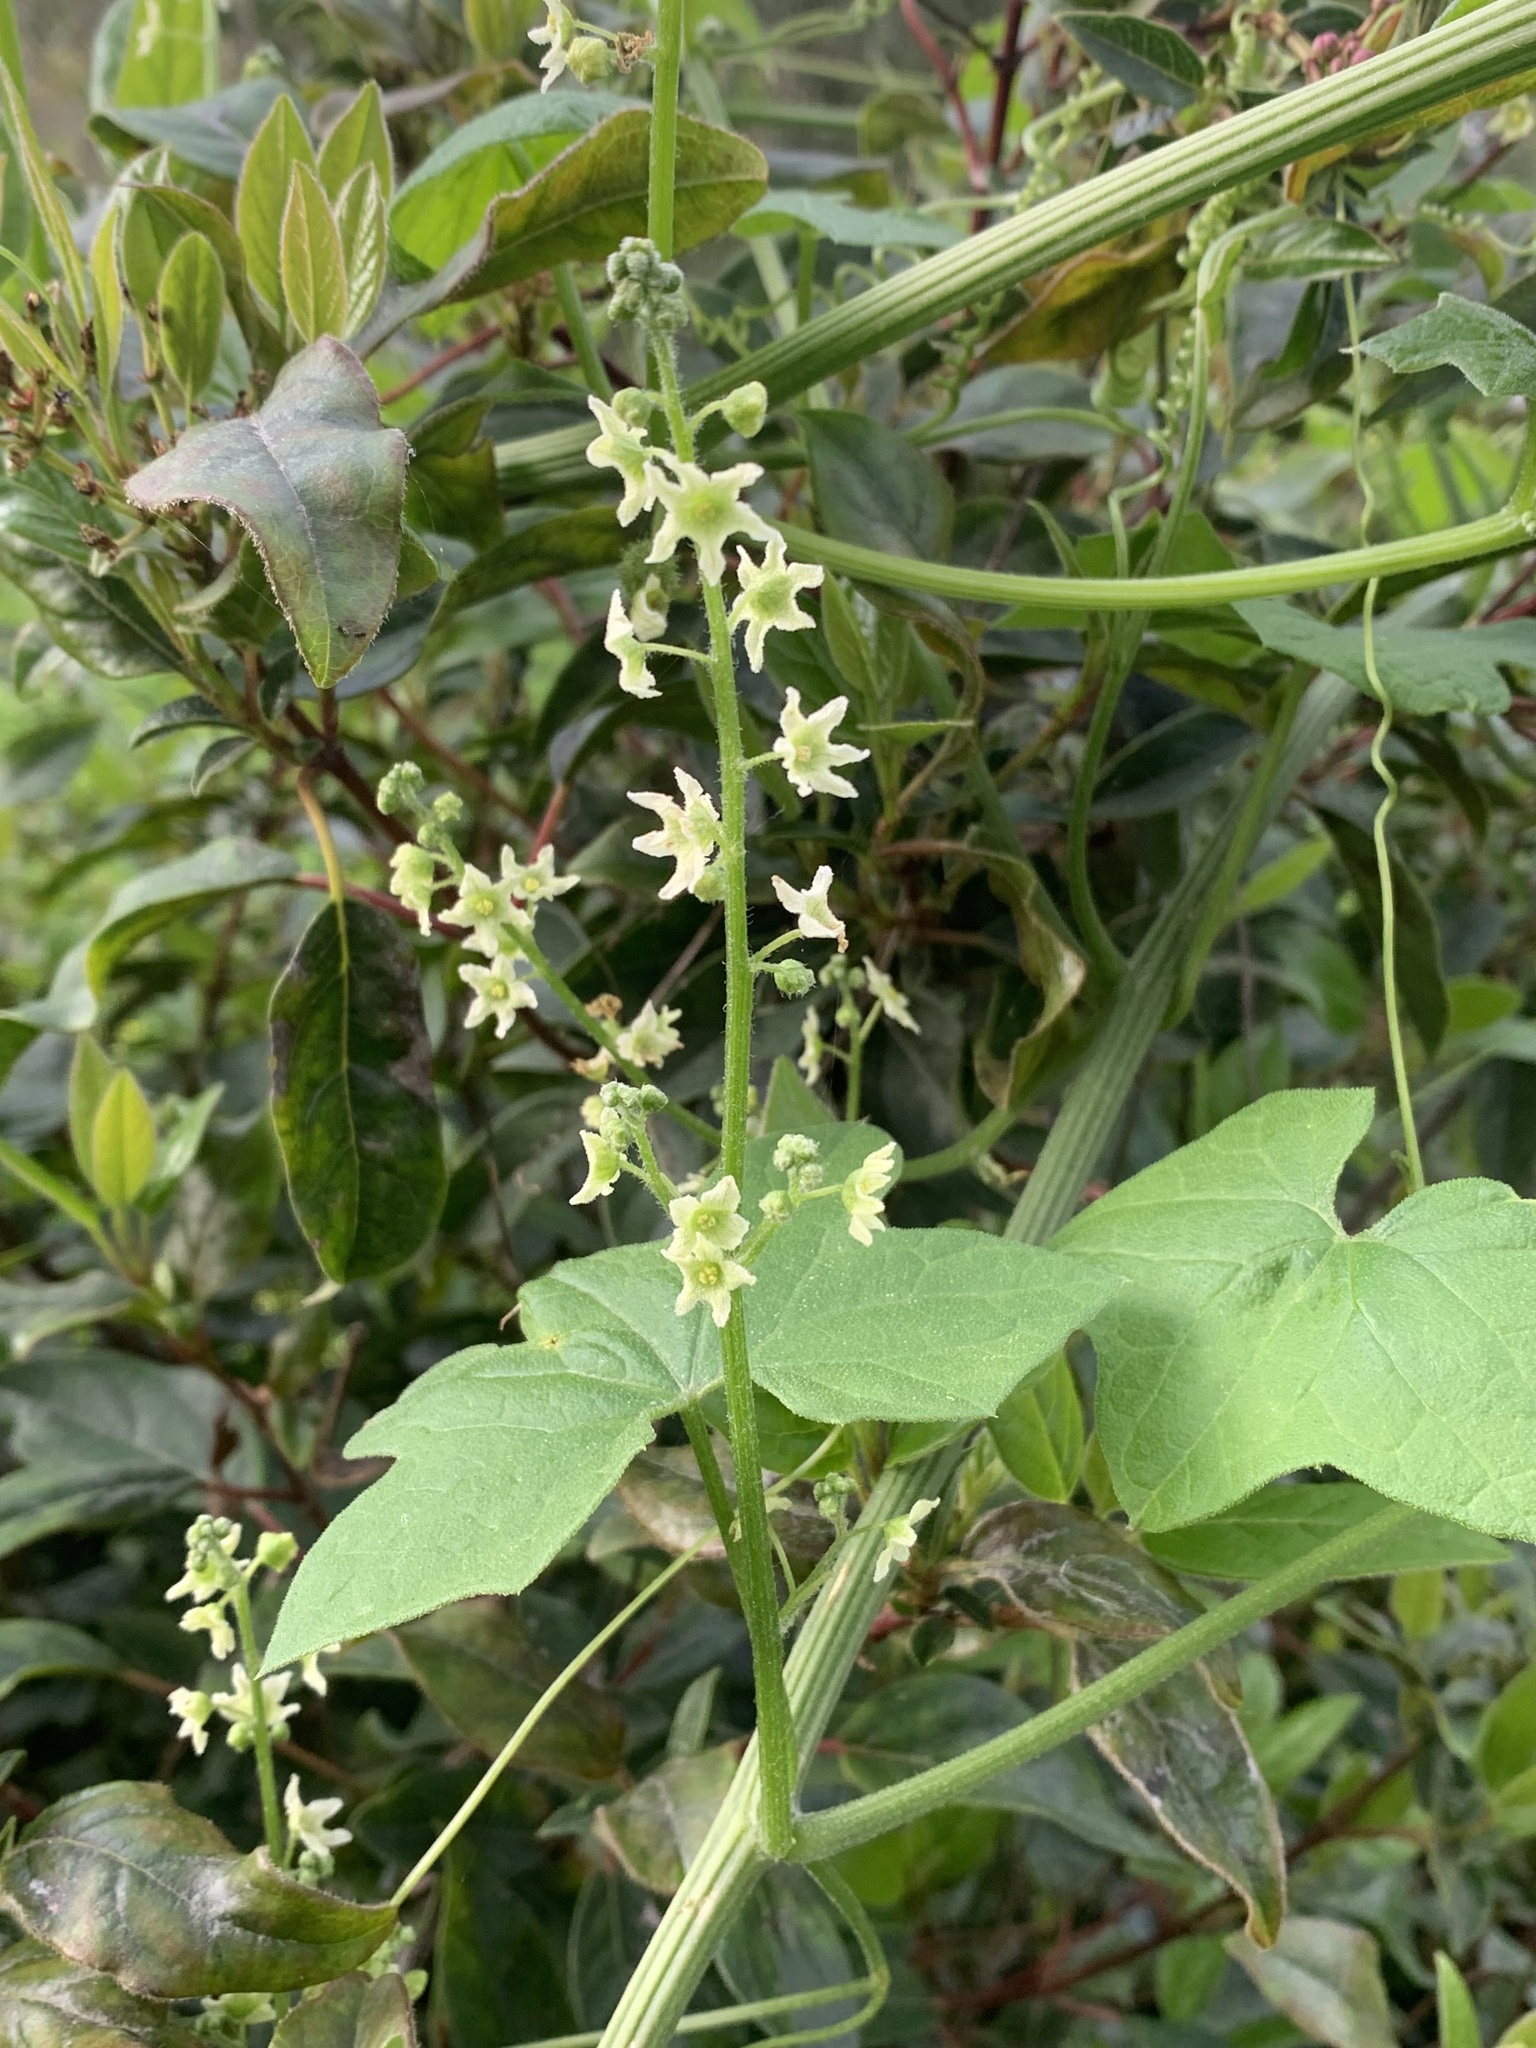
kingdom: Plantae
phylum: Tracheophyta
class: Magnoliopsida
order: Cucurbitales
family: Cucurbitaceae
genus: Marah
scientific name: Marah fabacea
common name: California manroot
